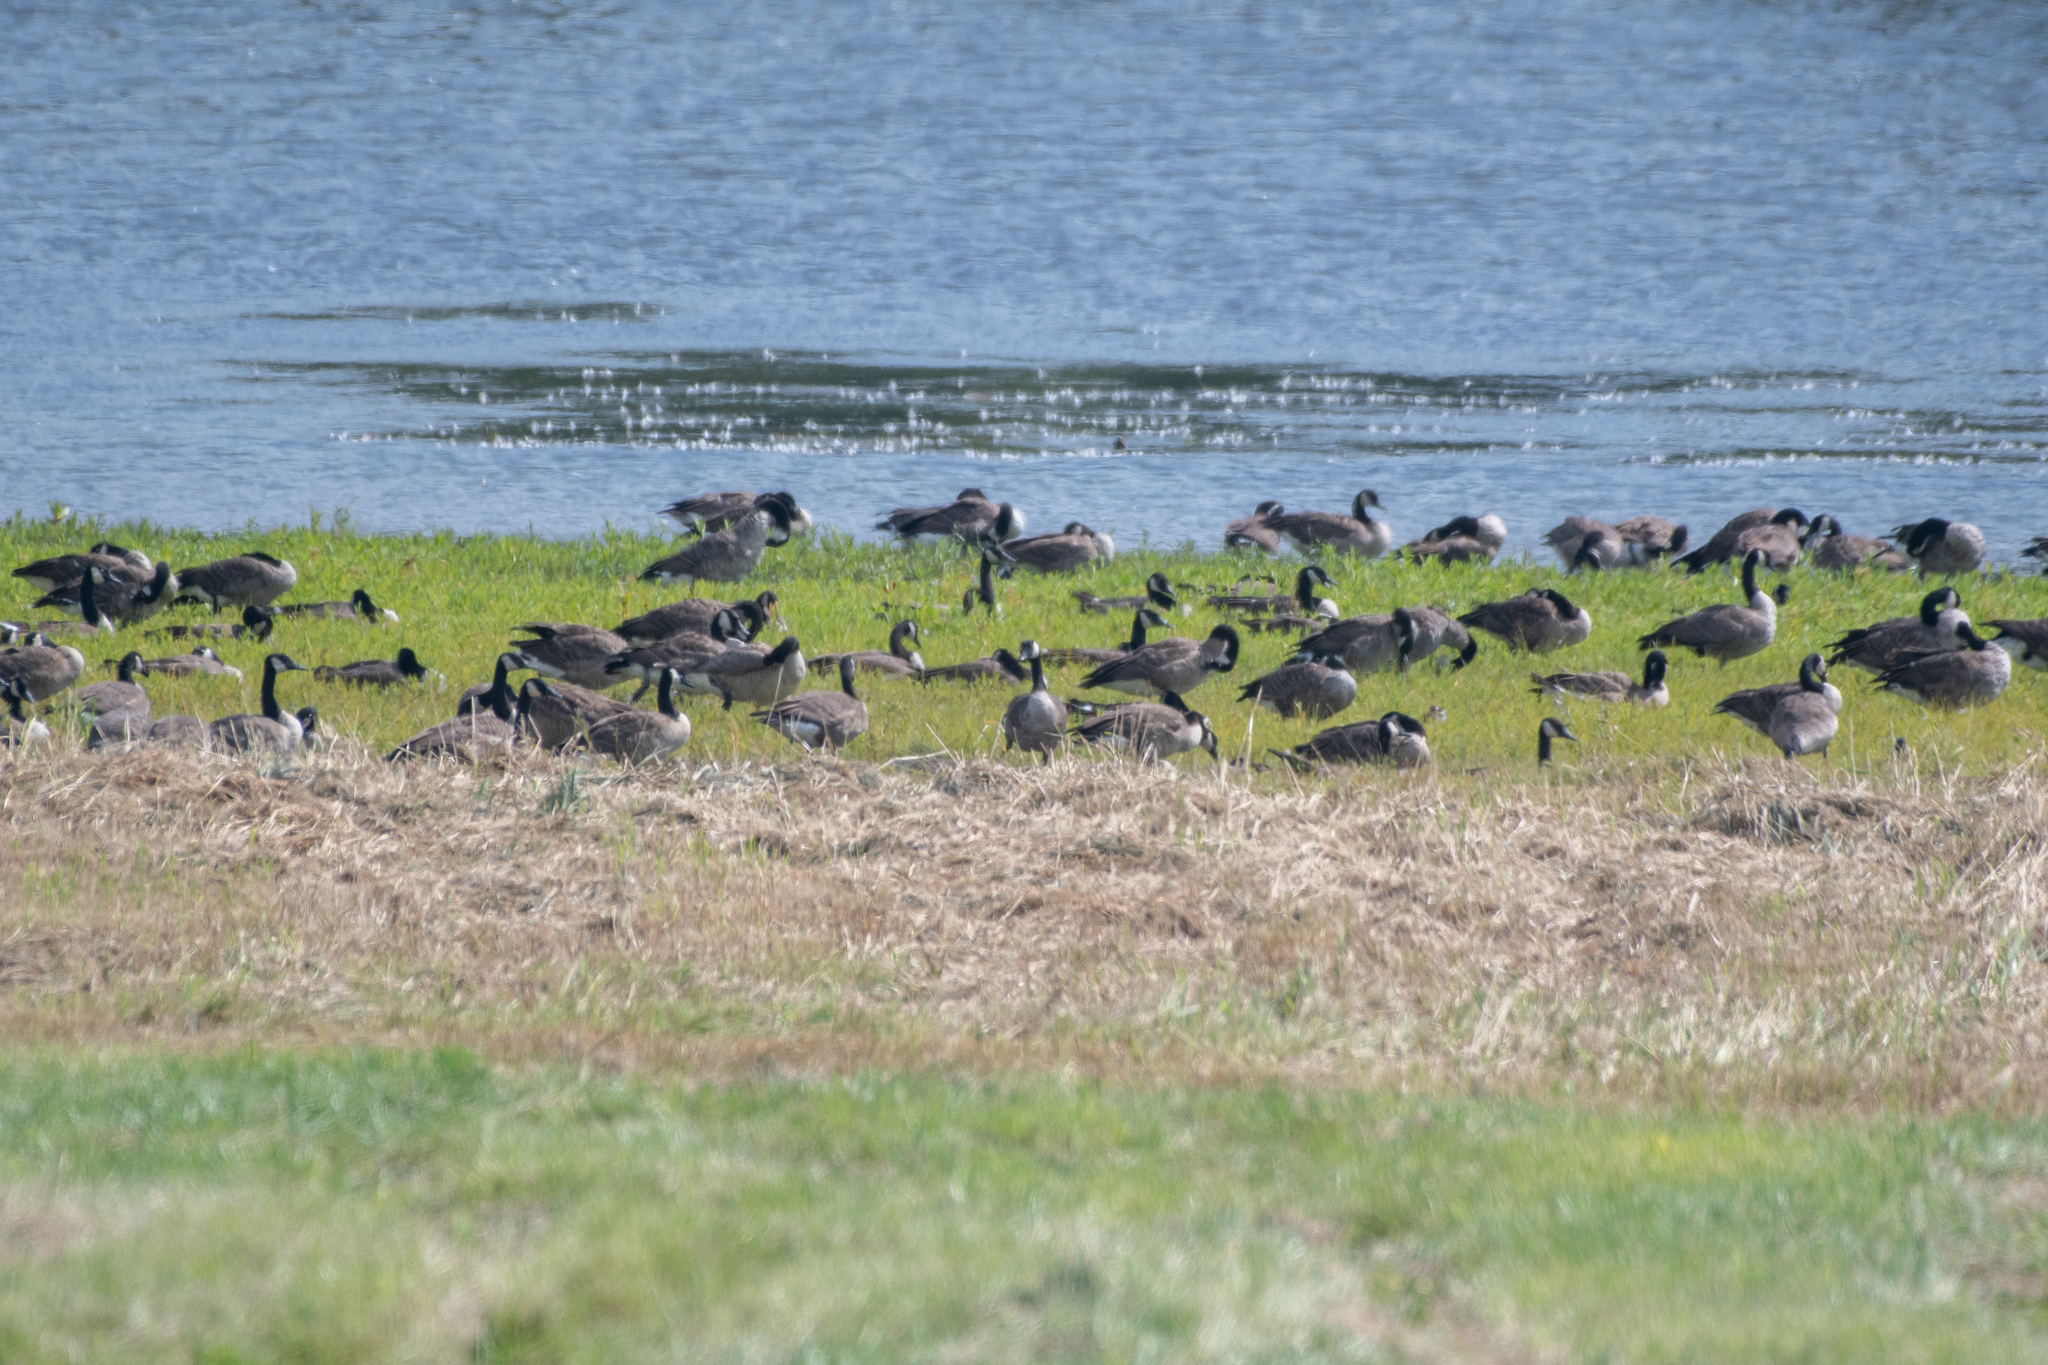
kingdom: Animalia
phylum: Chordata
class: Aves
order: Anseriformes
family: Anatidae
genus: Branta
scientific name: Branta canadensis
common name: Canada goose
